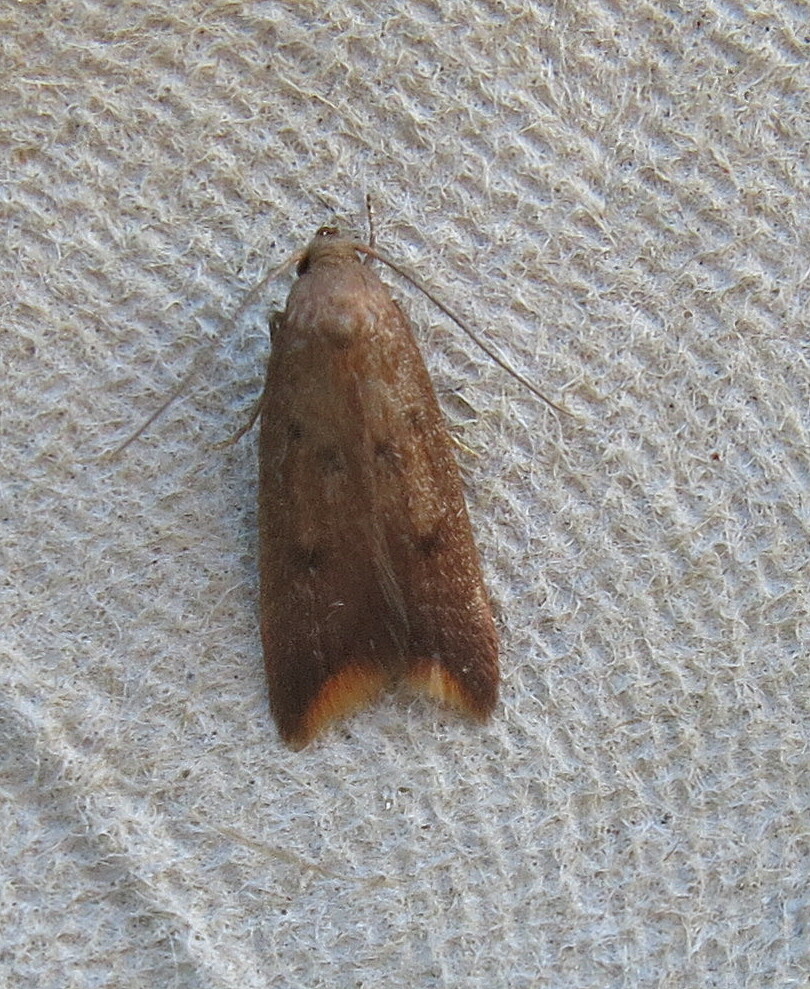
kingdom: Animalia
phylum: Arthropoda
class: Insecta
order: Lepidoptera
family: Oecophoridae
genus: Tachystola
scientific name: Tachystola acroxantha
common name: Ruddy streak
